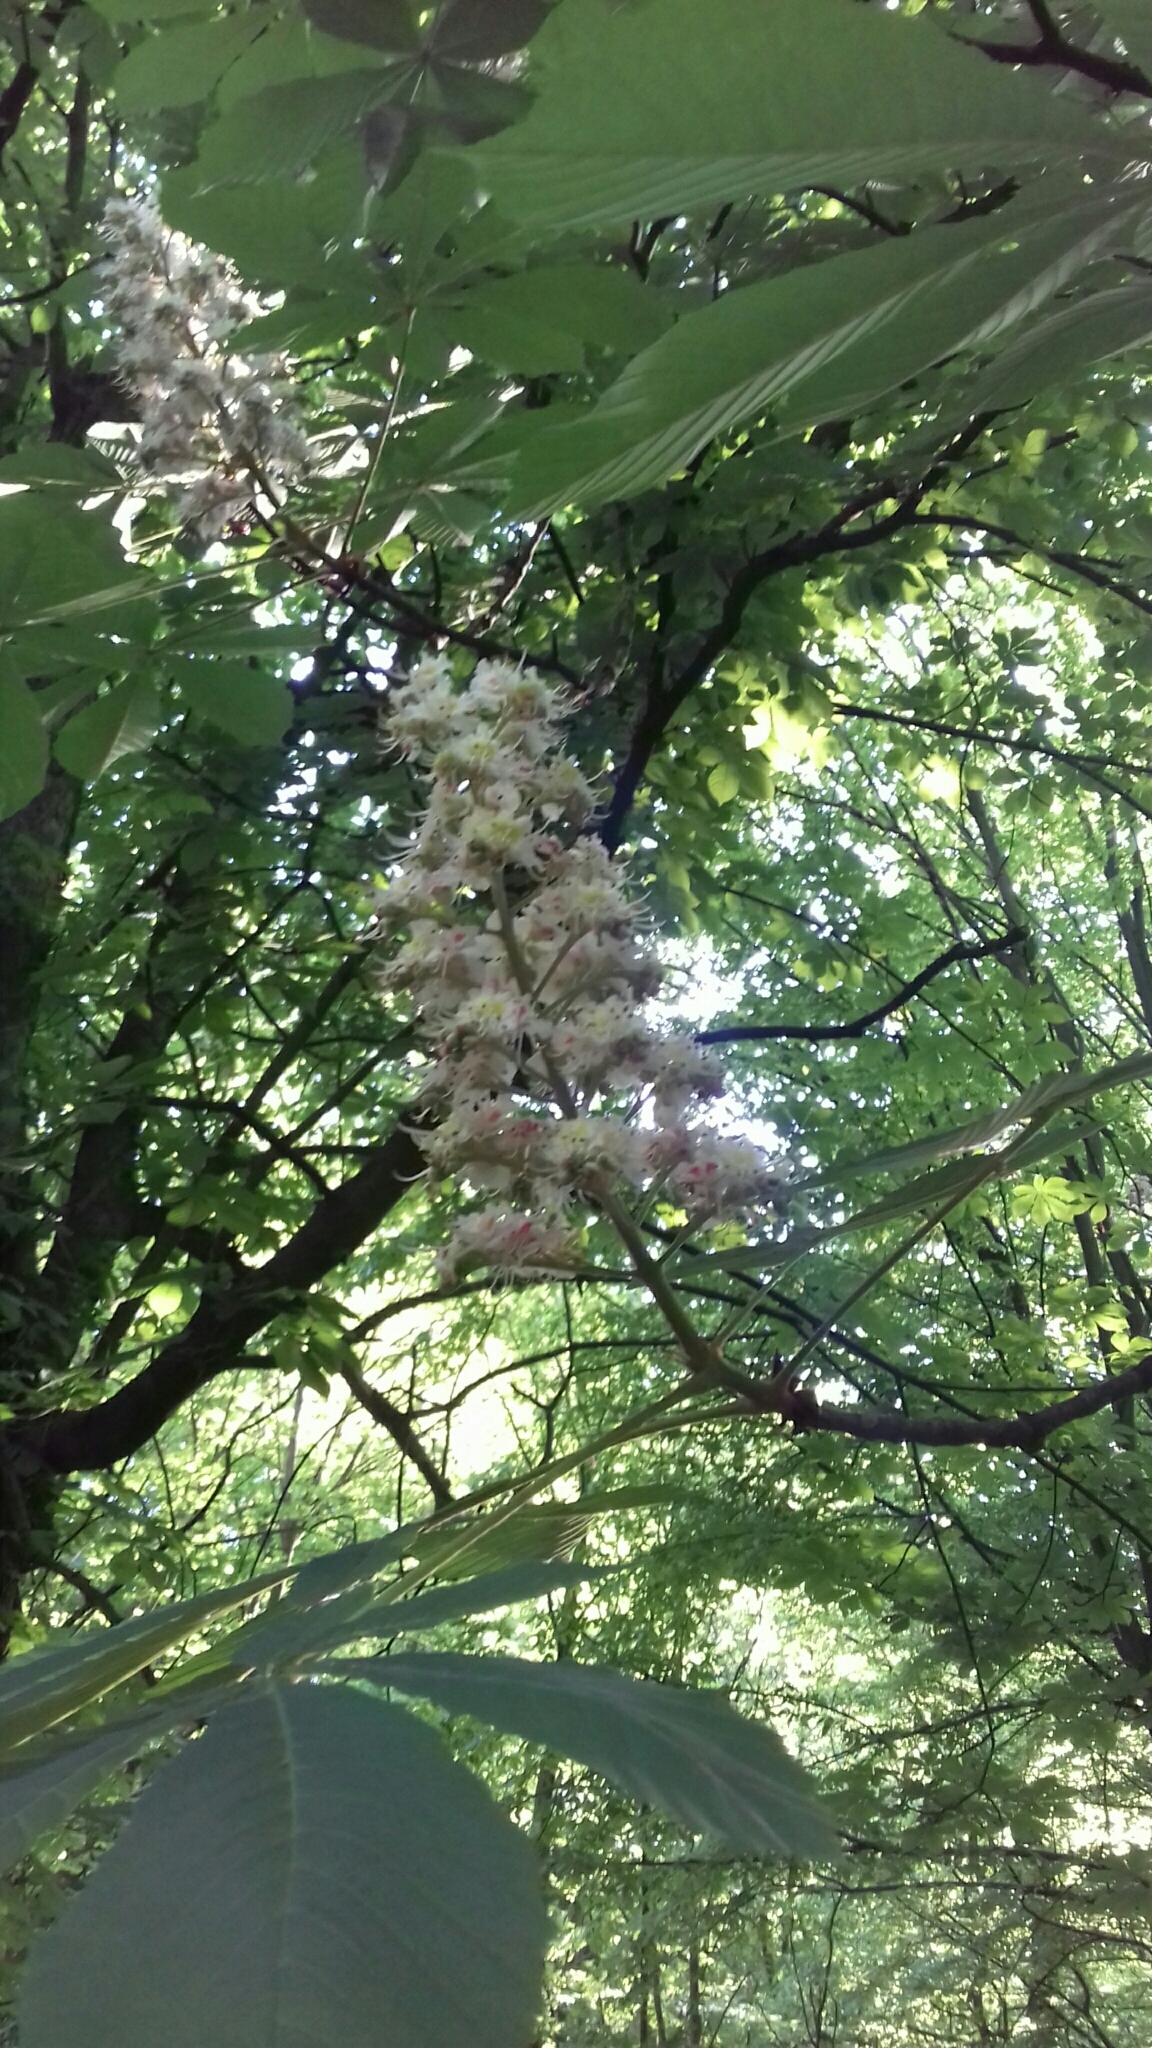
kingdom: Plantae
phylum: Tracheophyta
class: Magnoliopsida
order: Sapindales
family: Sapindaceae
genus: Aesculus
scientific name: Aesculus hippocastanum
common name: Horse-chestnut
